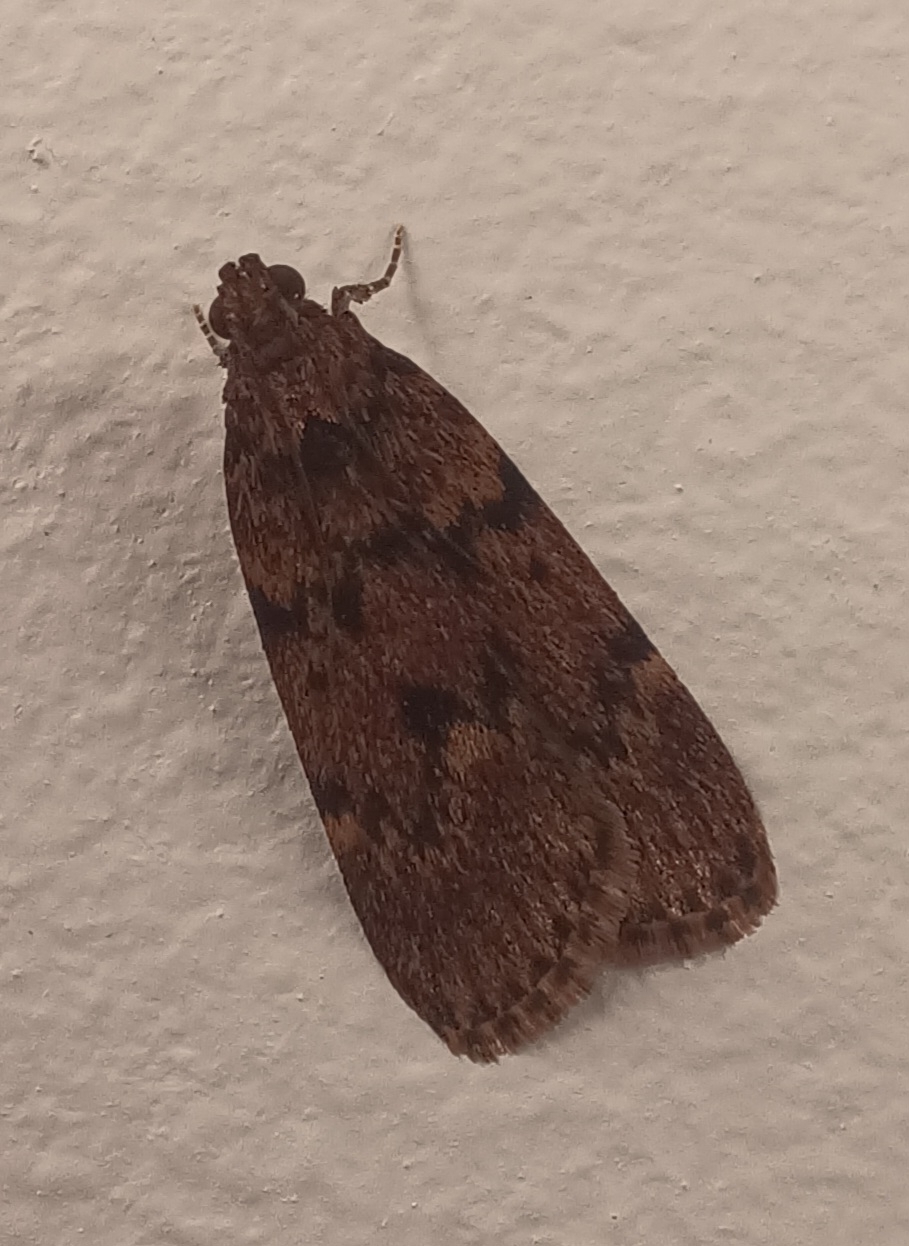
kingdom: Animalia
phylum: Arthropoda
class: Insecta
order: Lepidoptera
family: Pyralidae
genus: Mimaglossa
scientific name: Mimaglossa nauplialis
